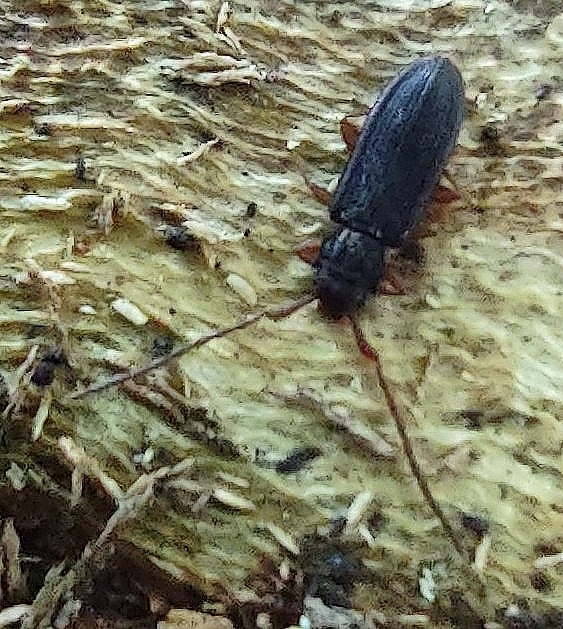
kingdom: Animalia
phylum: Arthropoda
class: Insecta
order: Coleoptera
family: Silvanidae
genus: Uleiota
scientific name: Uleiota planatus
